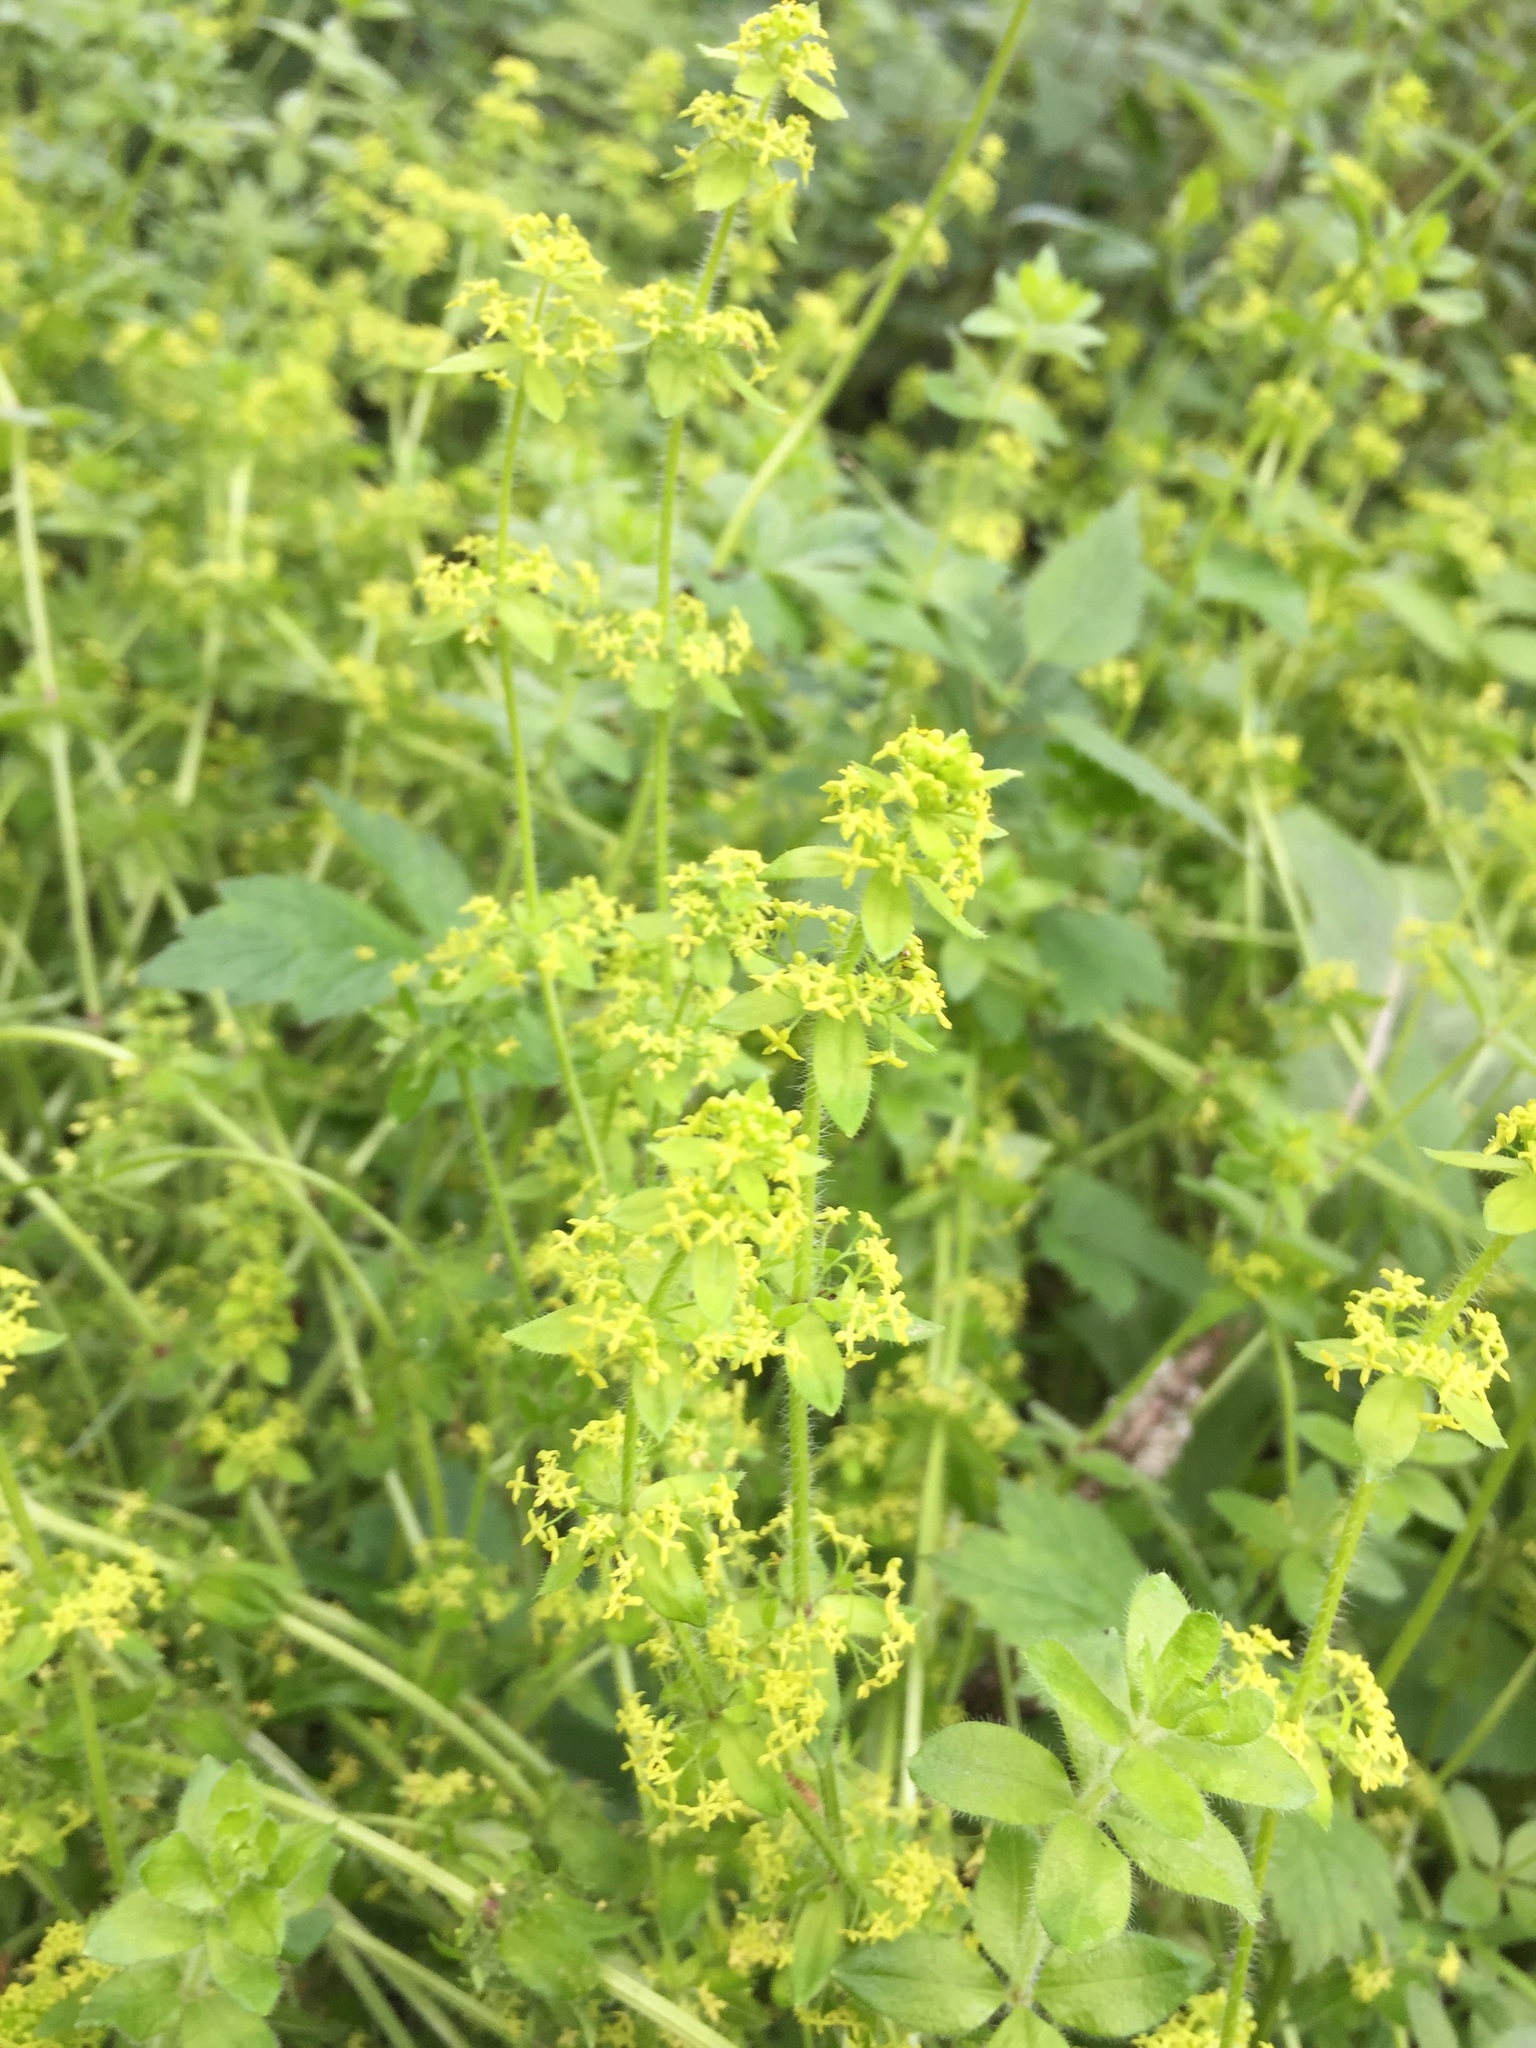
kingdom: Plantae
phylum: Tracheophyta
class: Magnoliopsida
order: Gentianales
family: Rubiaceae
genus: Cruciata
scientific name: Cruciata laevipes
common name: Crosswort
